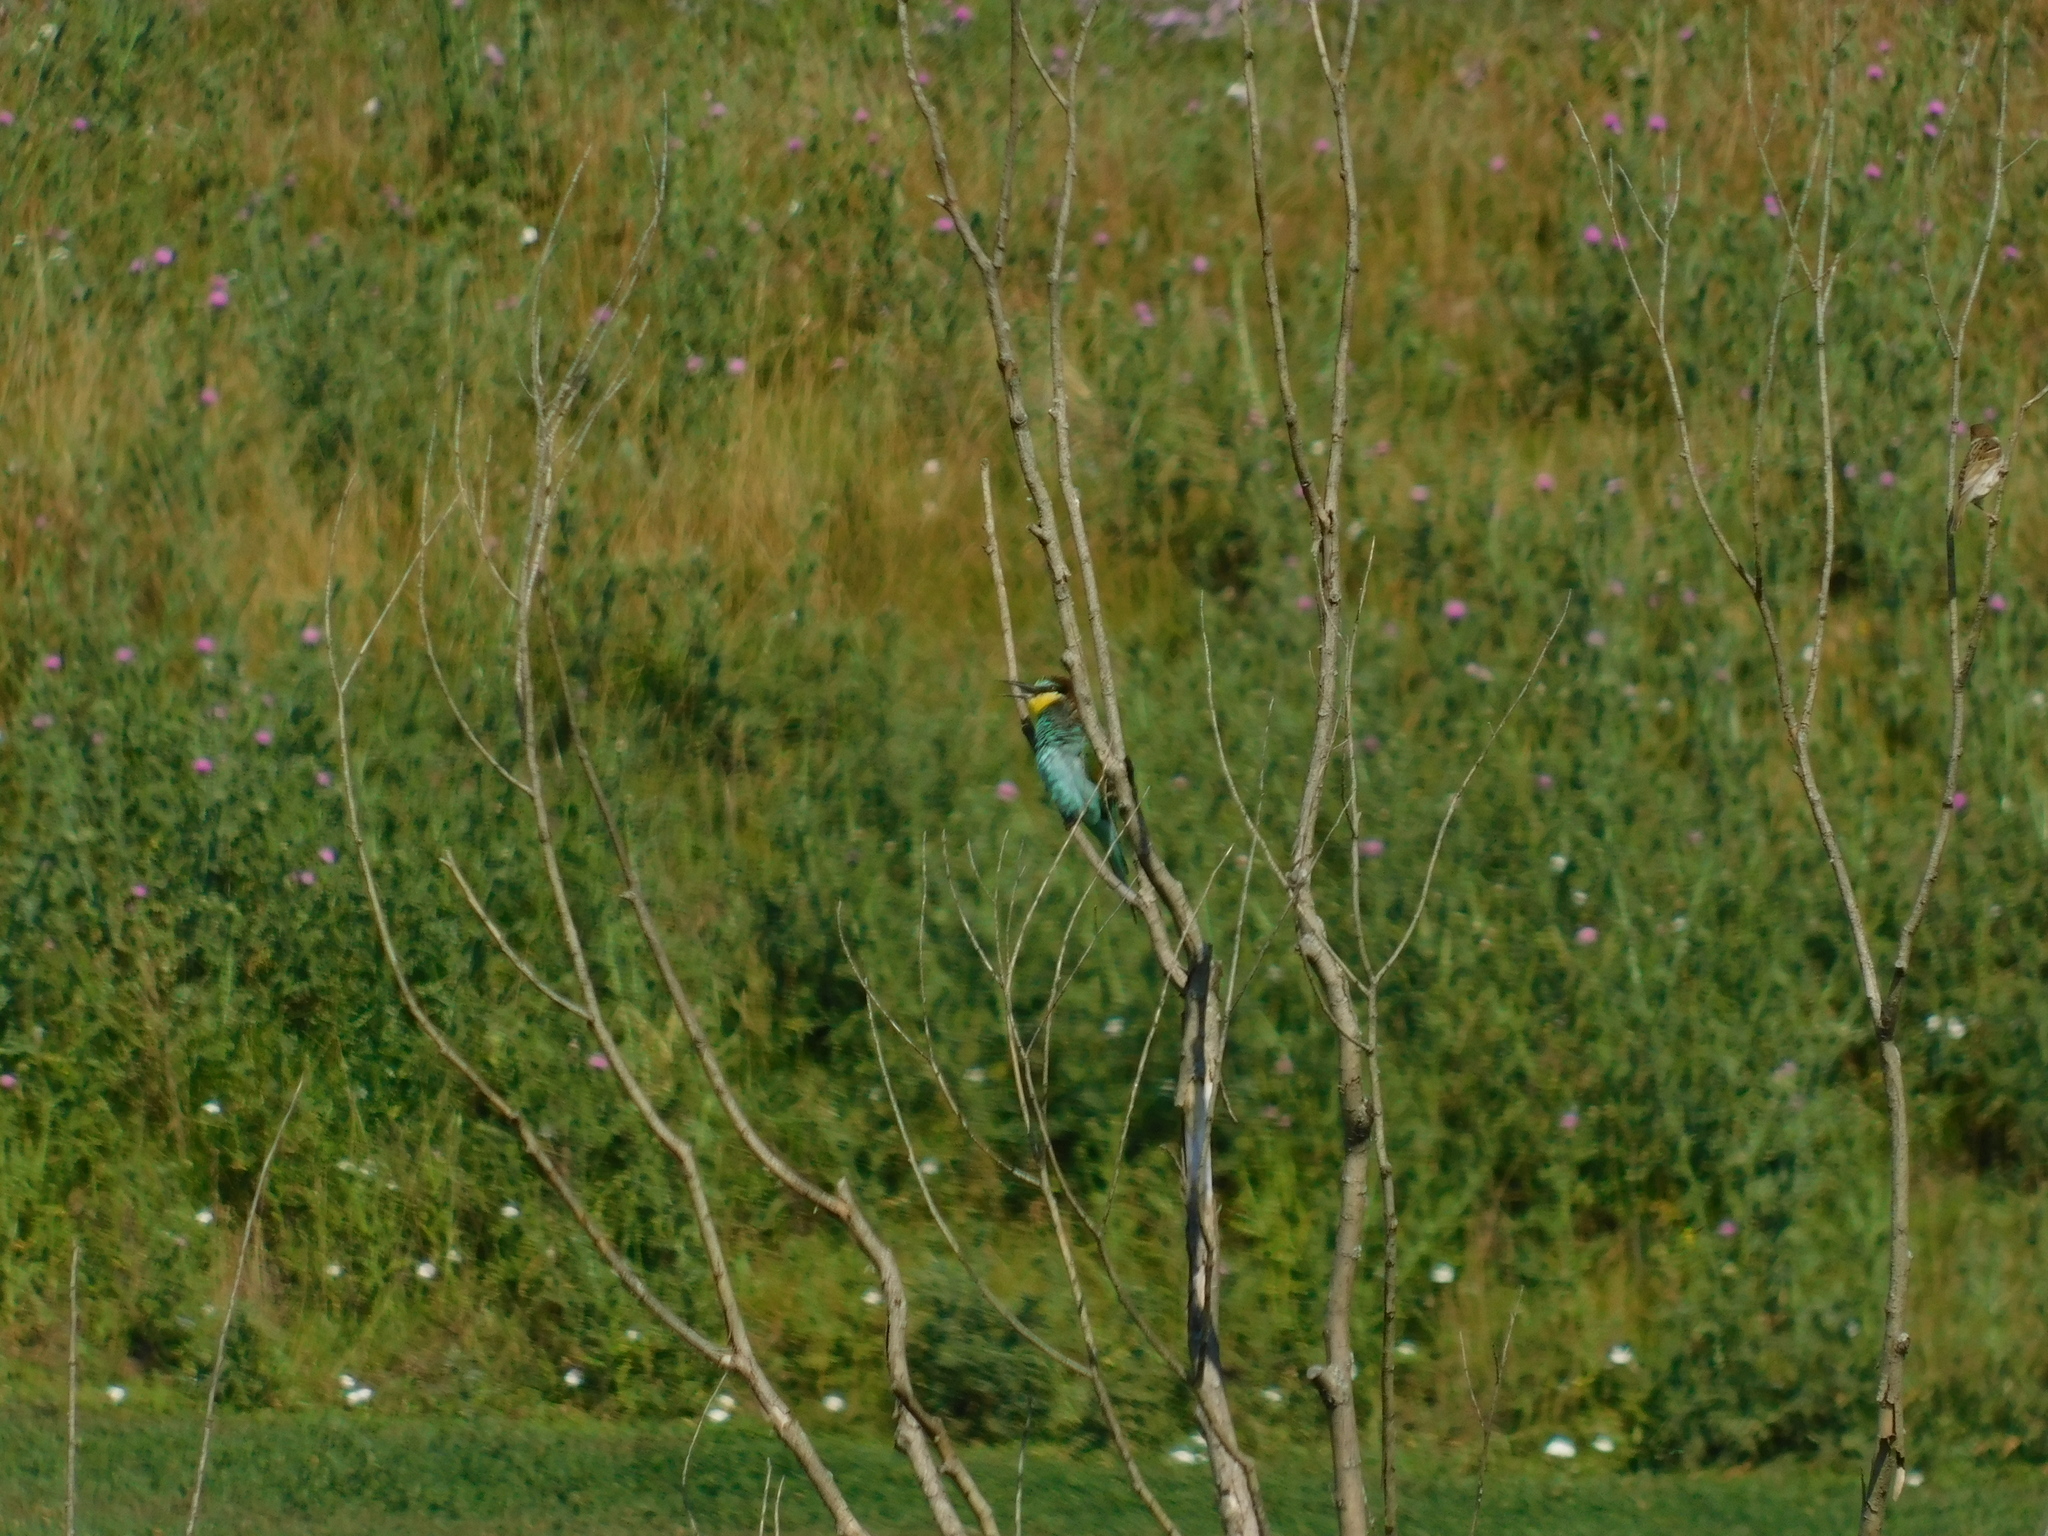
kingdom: Animalia
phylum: Chordata
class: Aves
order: Coraciiformes
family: Meropidae
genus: Merops
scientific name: Merops apiaster
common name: European bee-eater
